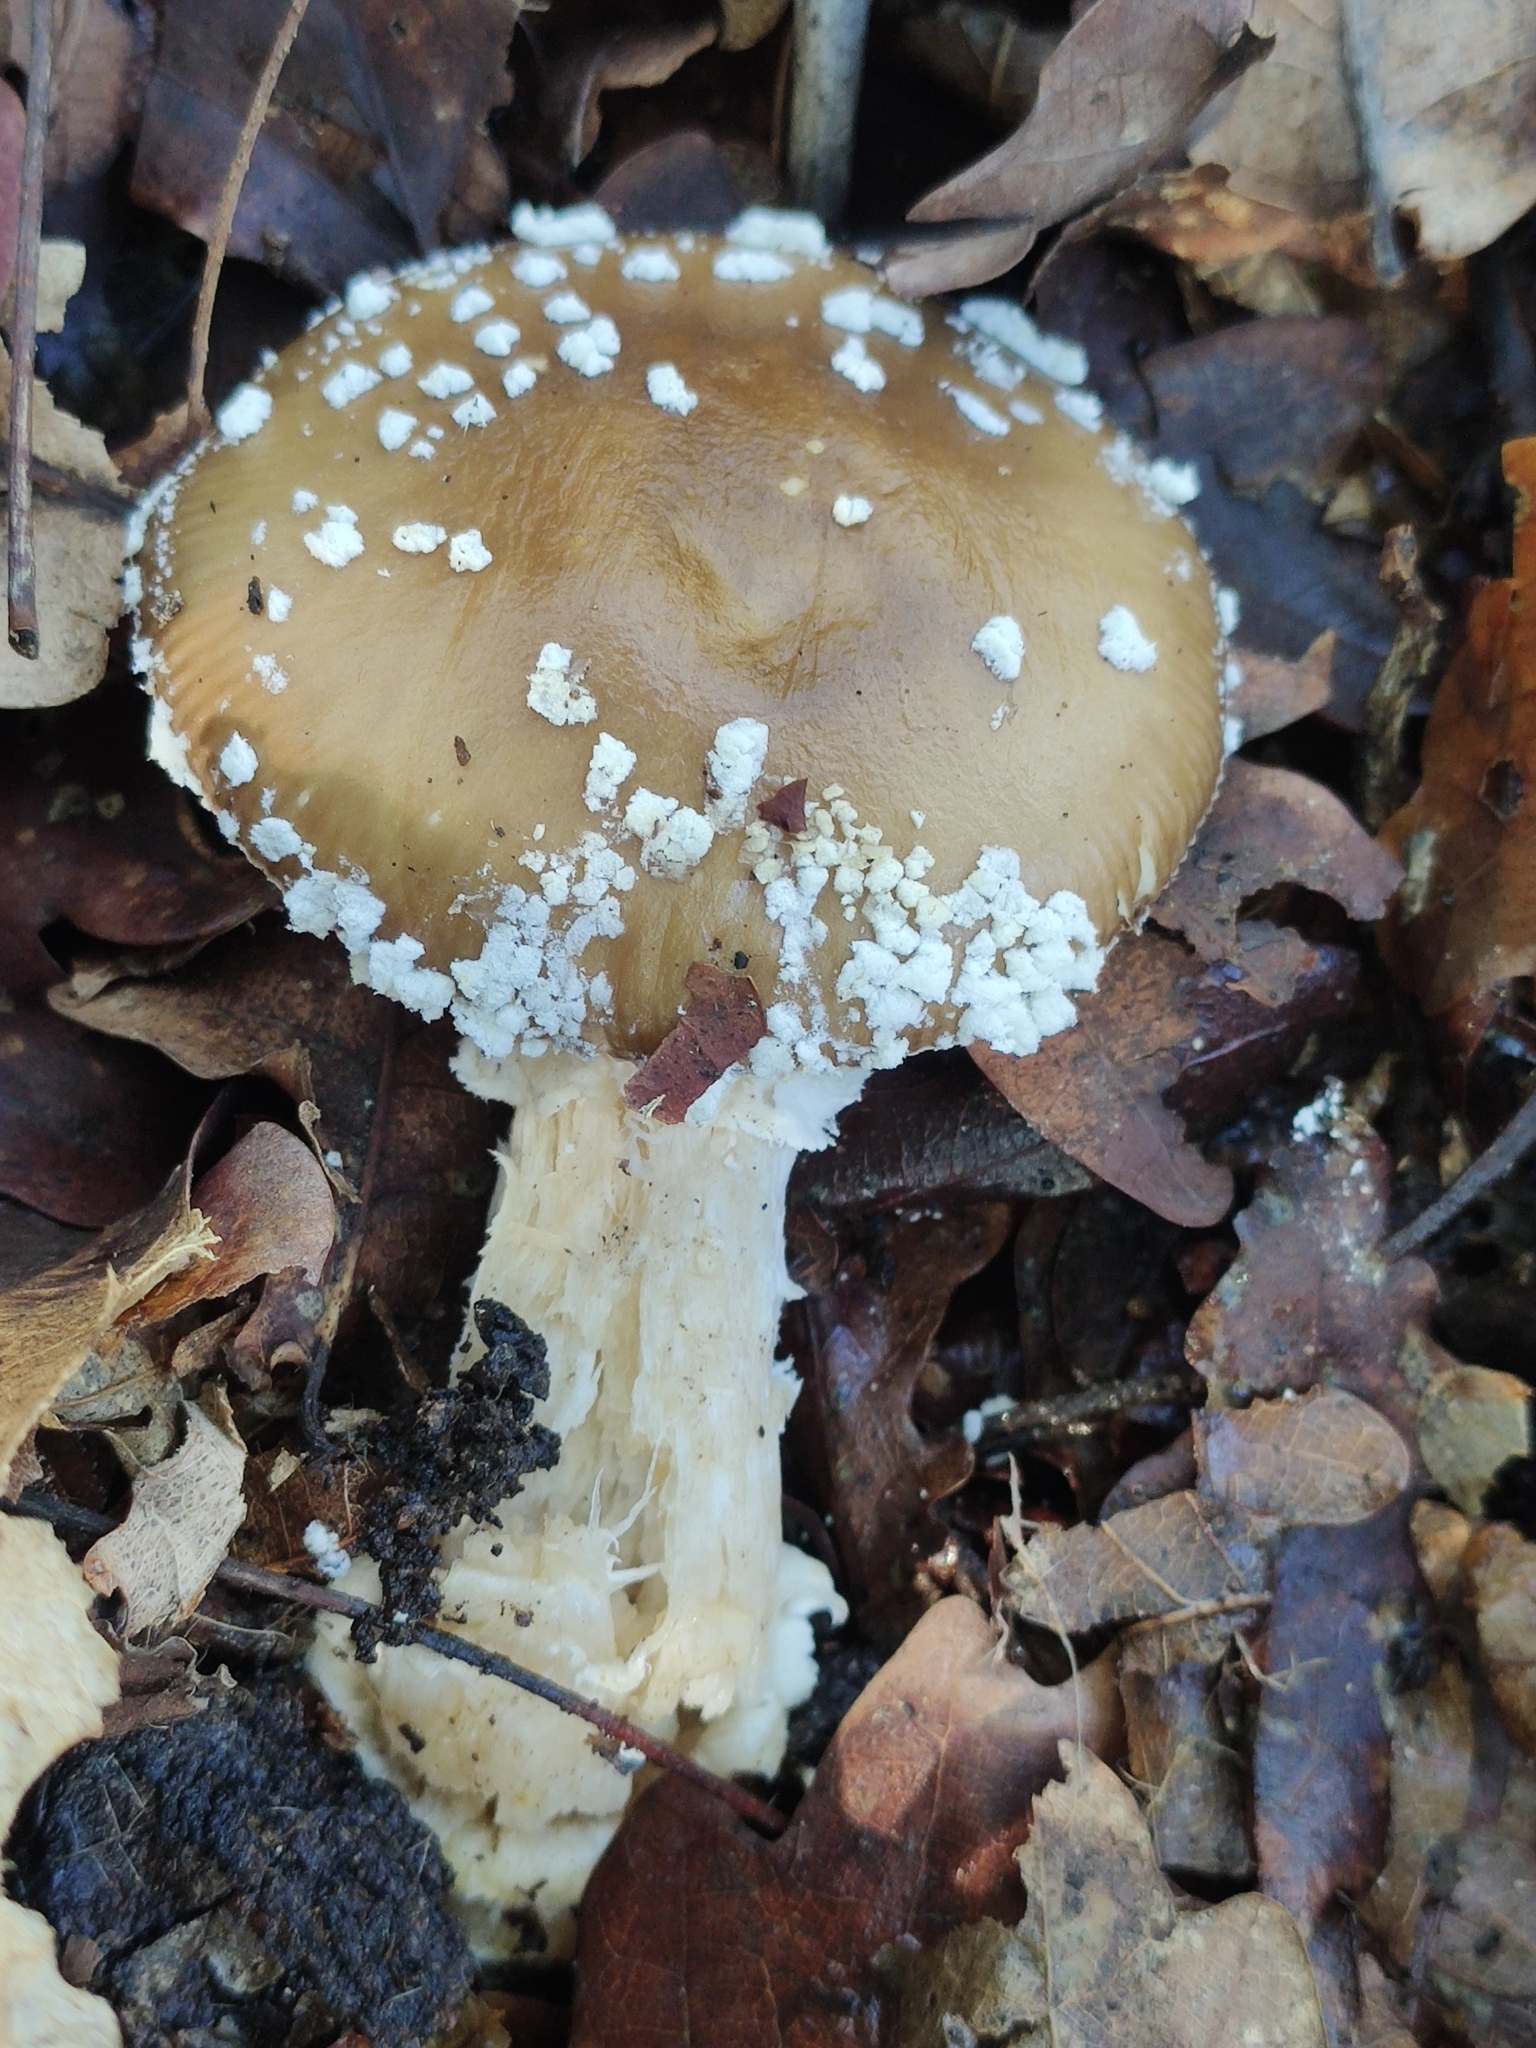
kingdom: Fungi
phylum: Basidiomycota
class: Agaricomycetes
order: Agaricales
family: Amanitaceae
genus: Amanita
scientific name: Amanita pantherina
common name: Panthercap
